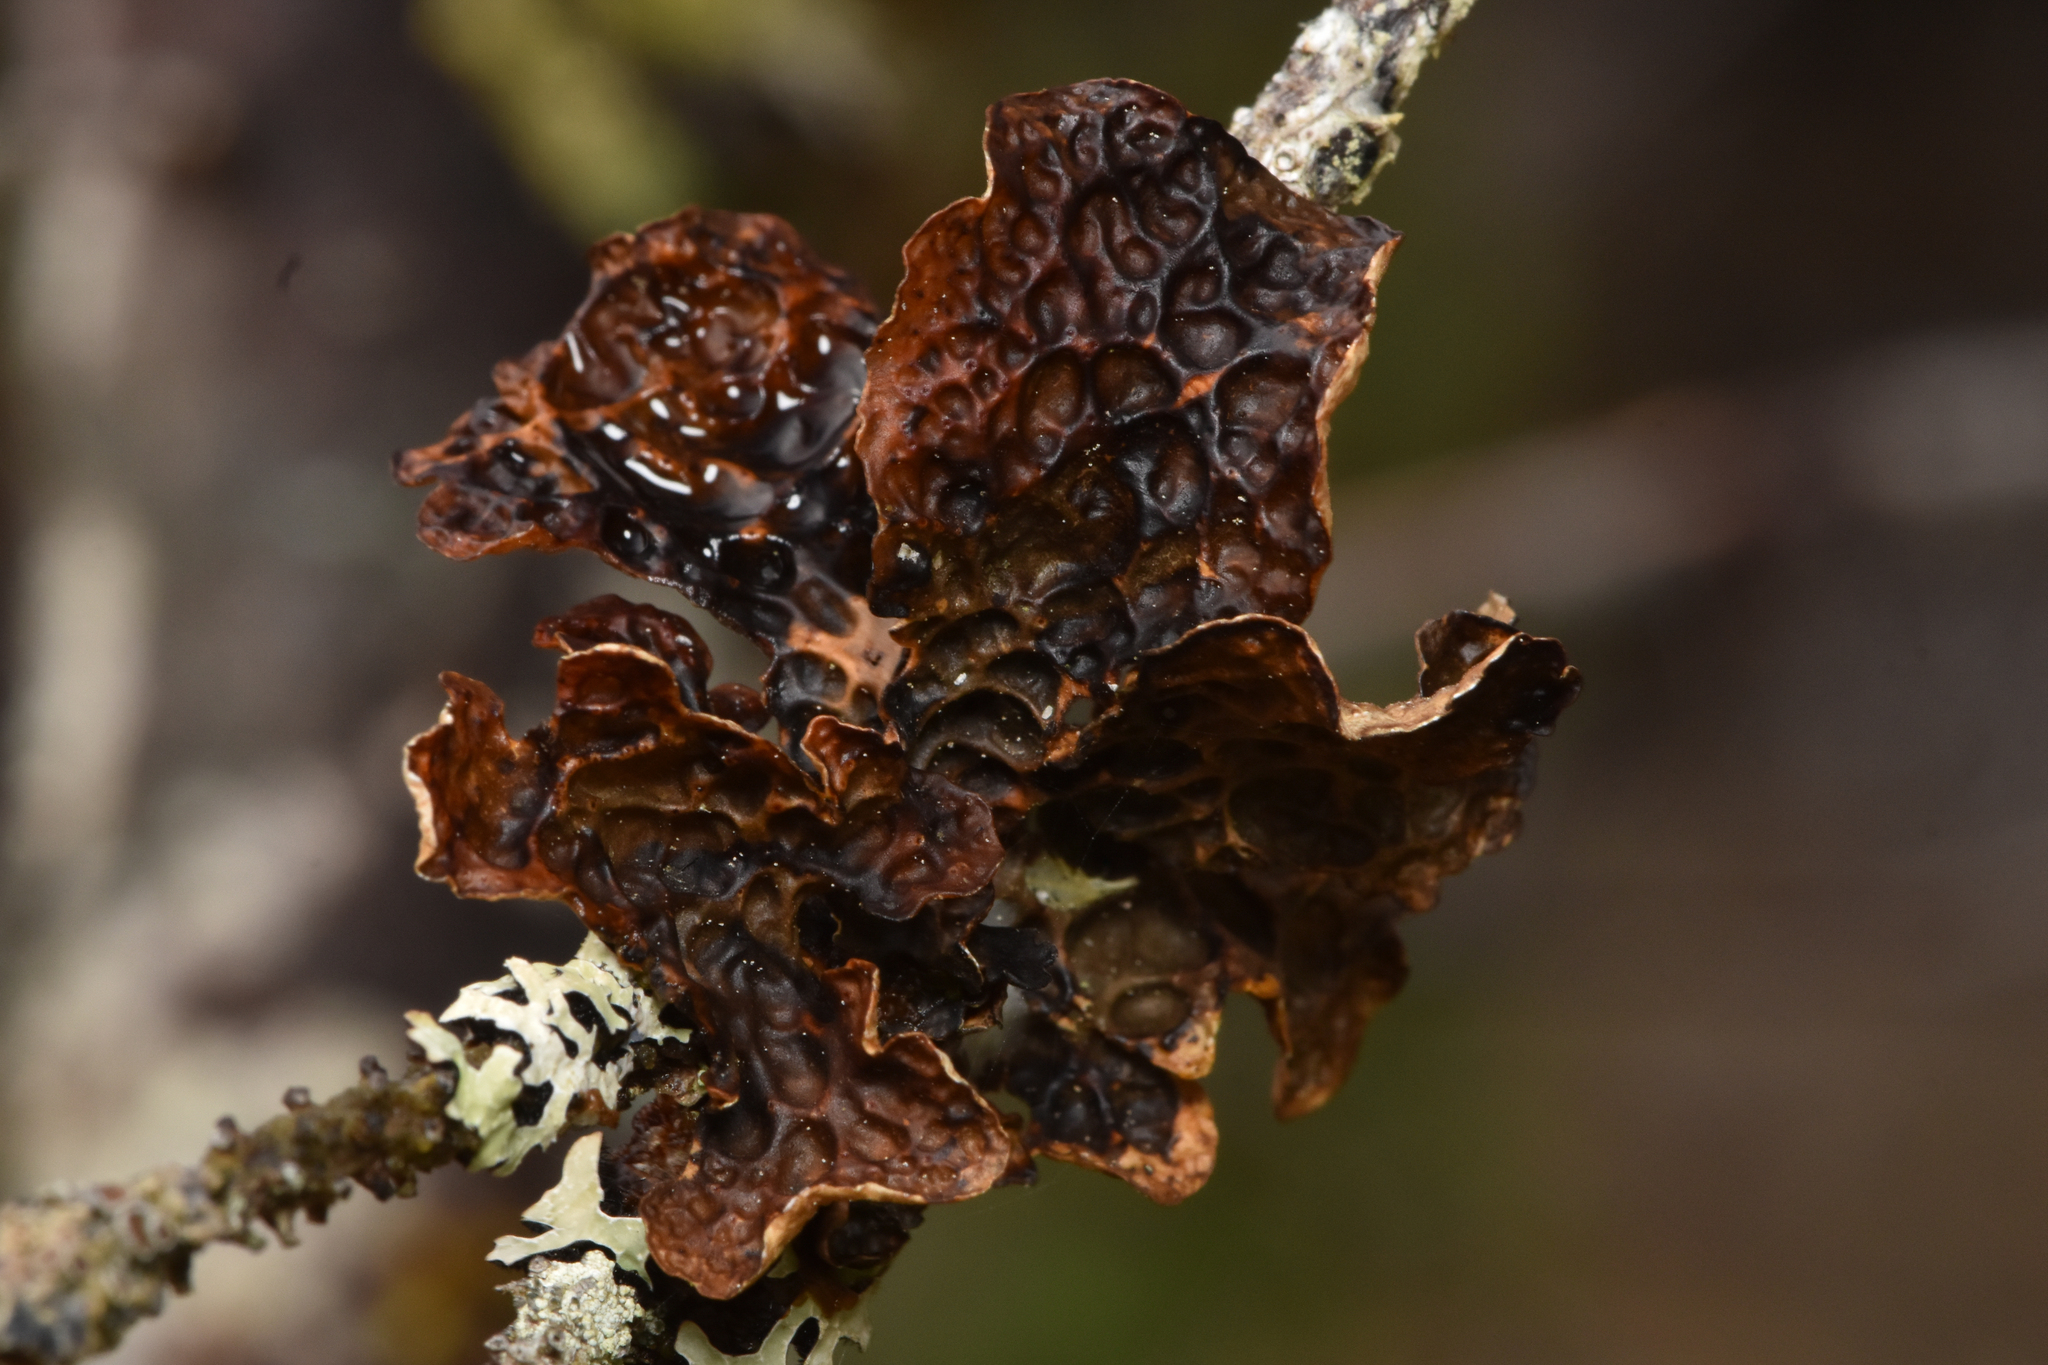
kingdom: Fungi
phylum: Ascomycota
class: Lecanoromycetes
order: Peltigerales
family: Lobariaceae
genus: Lobaria
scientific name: Lobaria anthraspis
